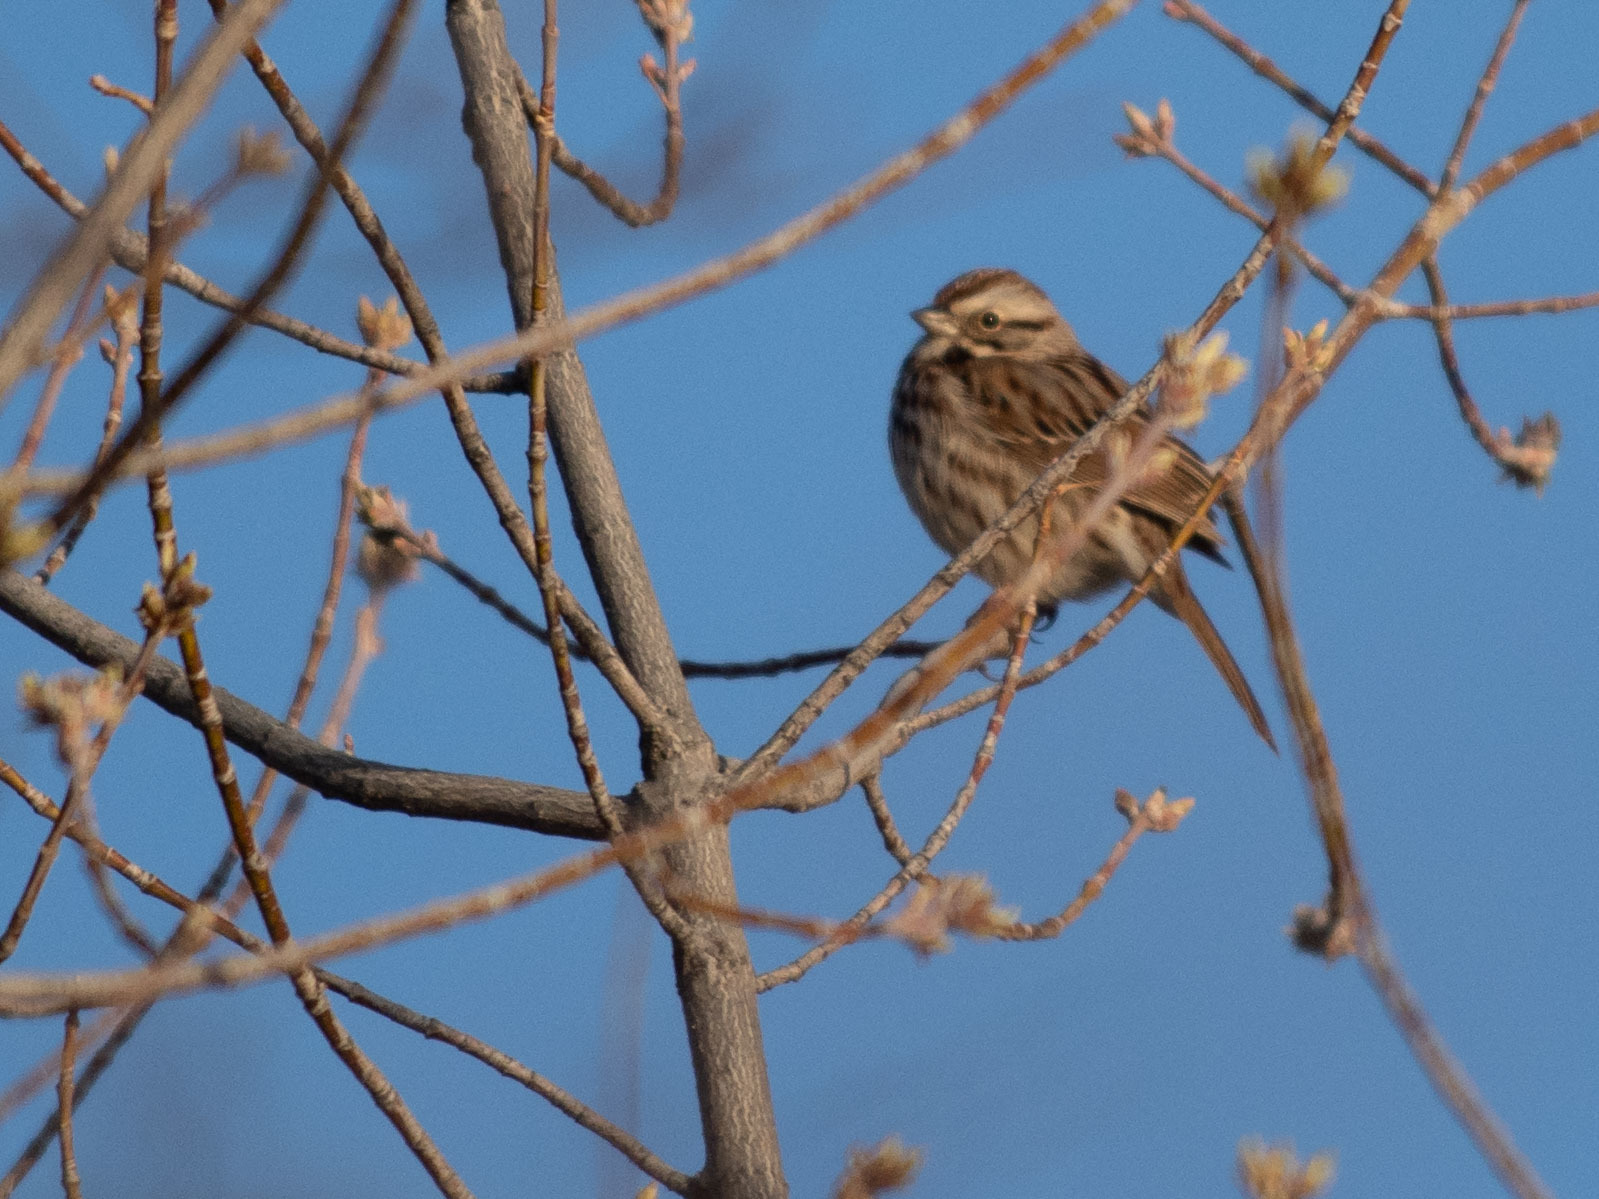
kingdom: Animalia
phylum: Chordata
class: Aves
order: Passeriformes
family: Passerellidae
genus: Melospiza
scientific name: Melospiza melodia
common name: Song sparrow
